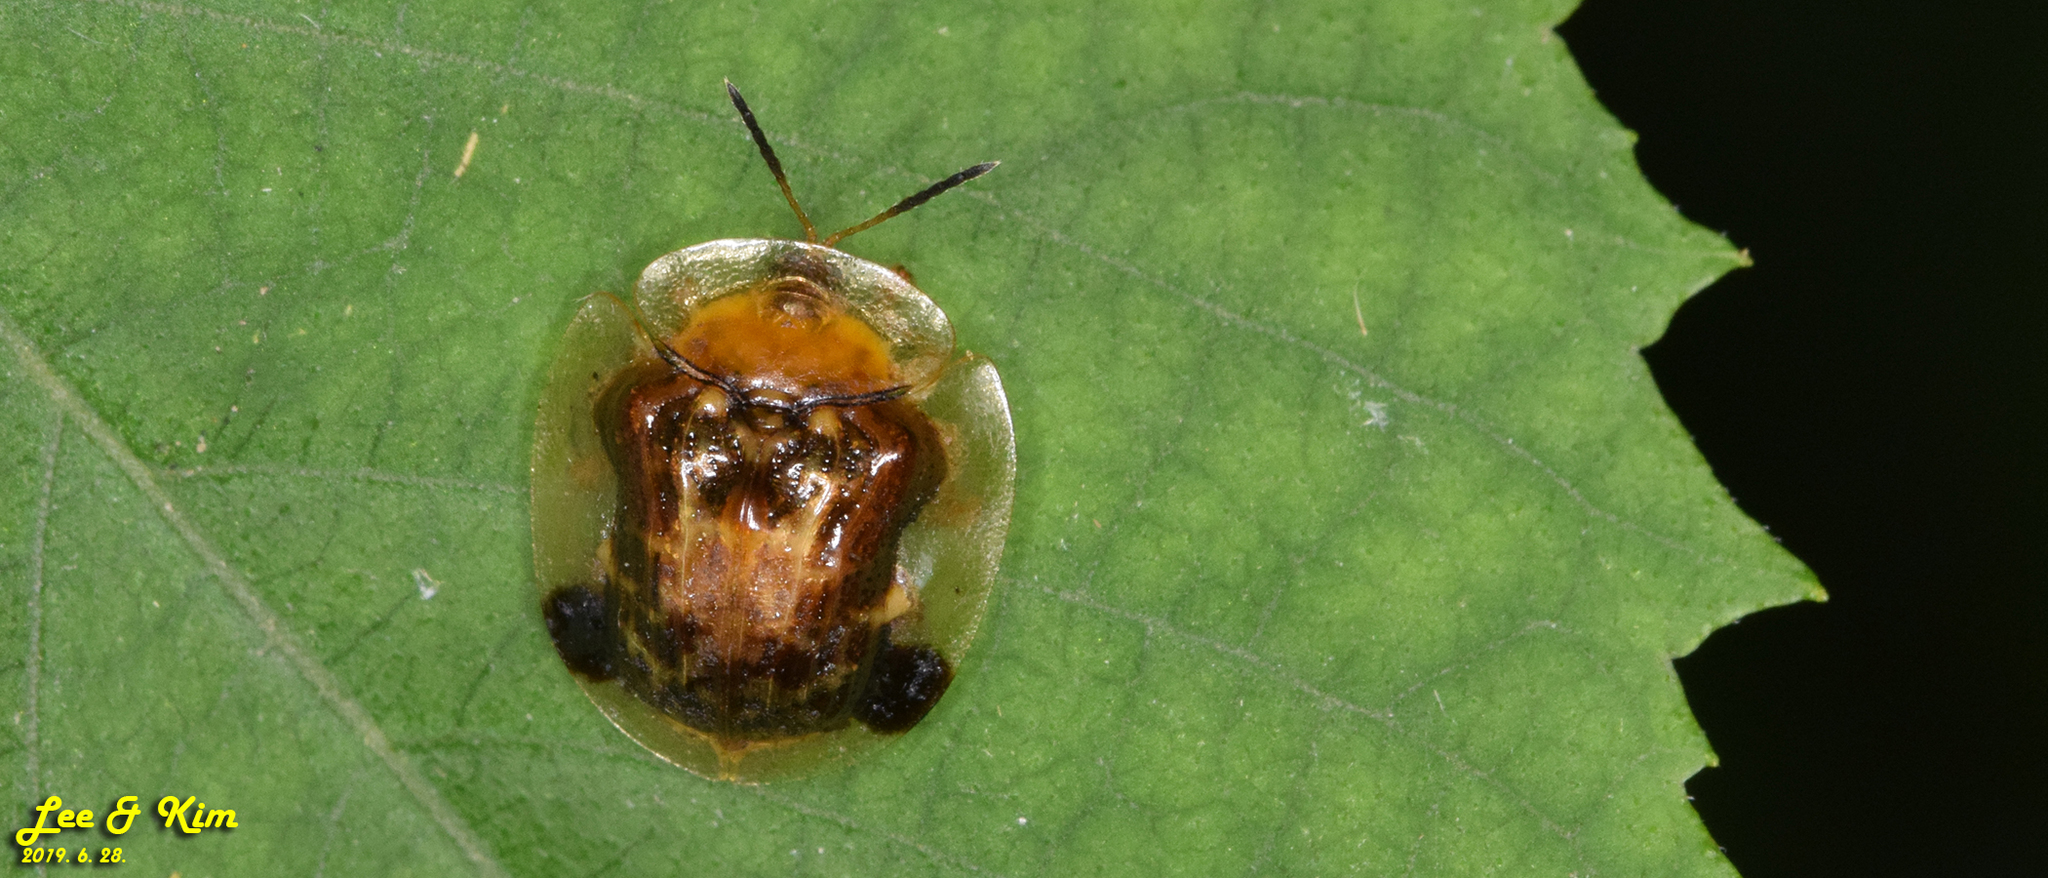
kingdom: Animalia
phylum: Arthropoda
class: Insecta
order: Coleoptera
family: Chrysomelidae
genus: Thlaspida
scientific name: Thlaspida biramosa
